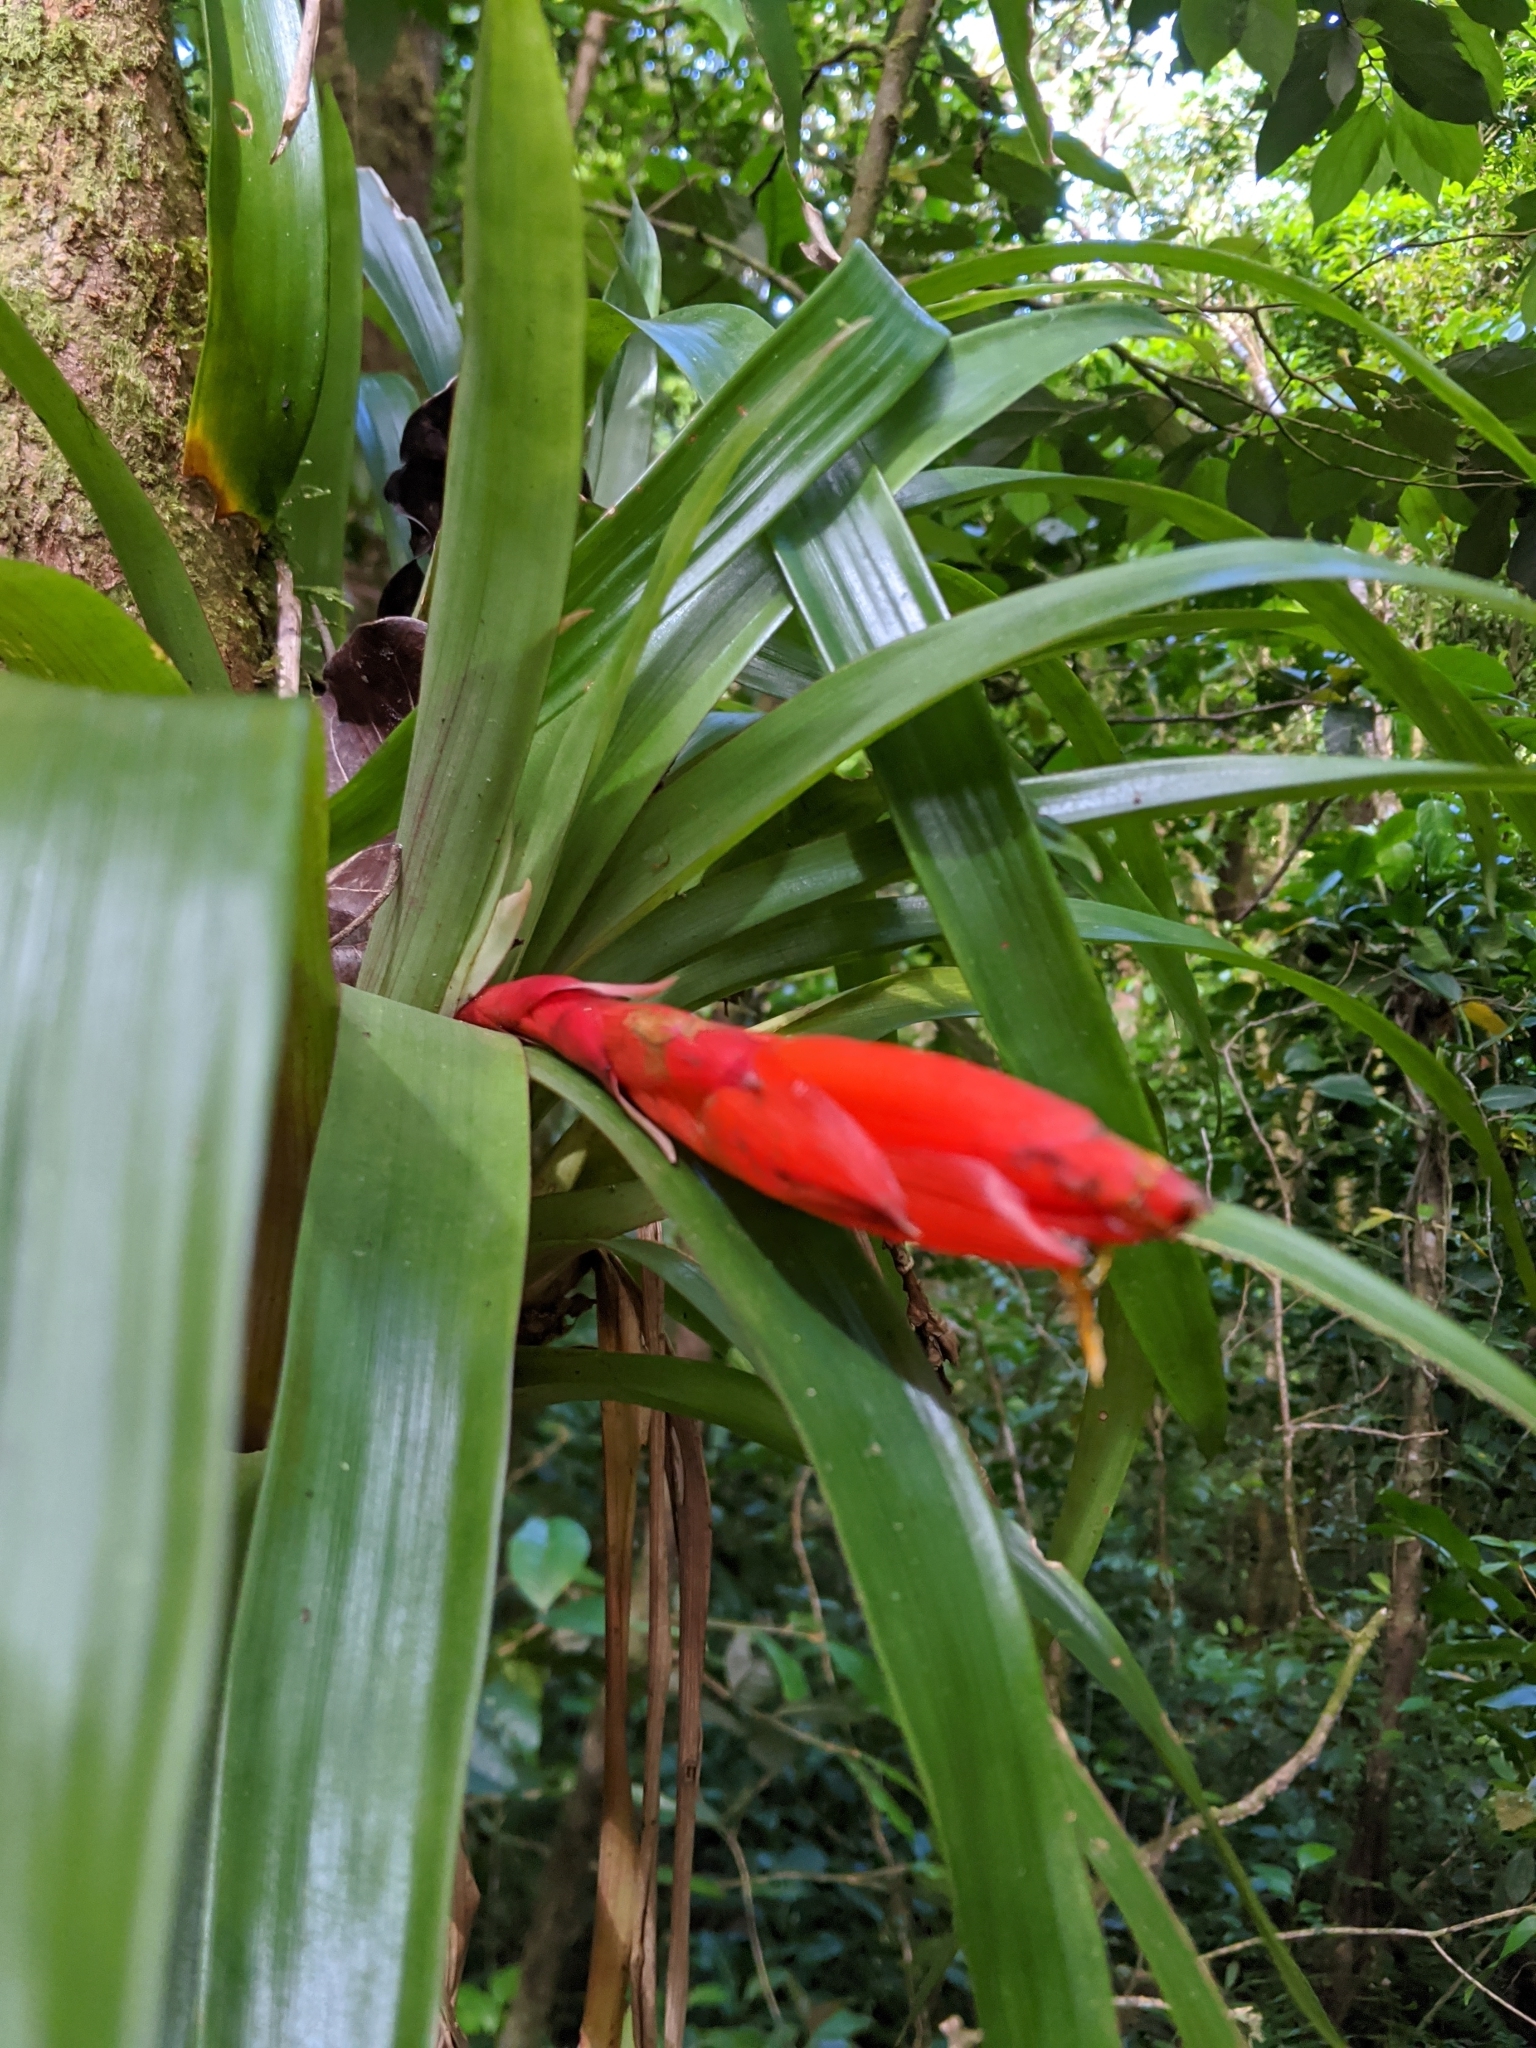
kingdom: Plantae
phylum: Tracheophyta
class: Liliopsida
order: Poales
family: Bromeliaceae
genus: Guzmania
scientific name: Guzmania nicaraguensis
